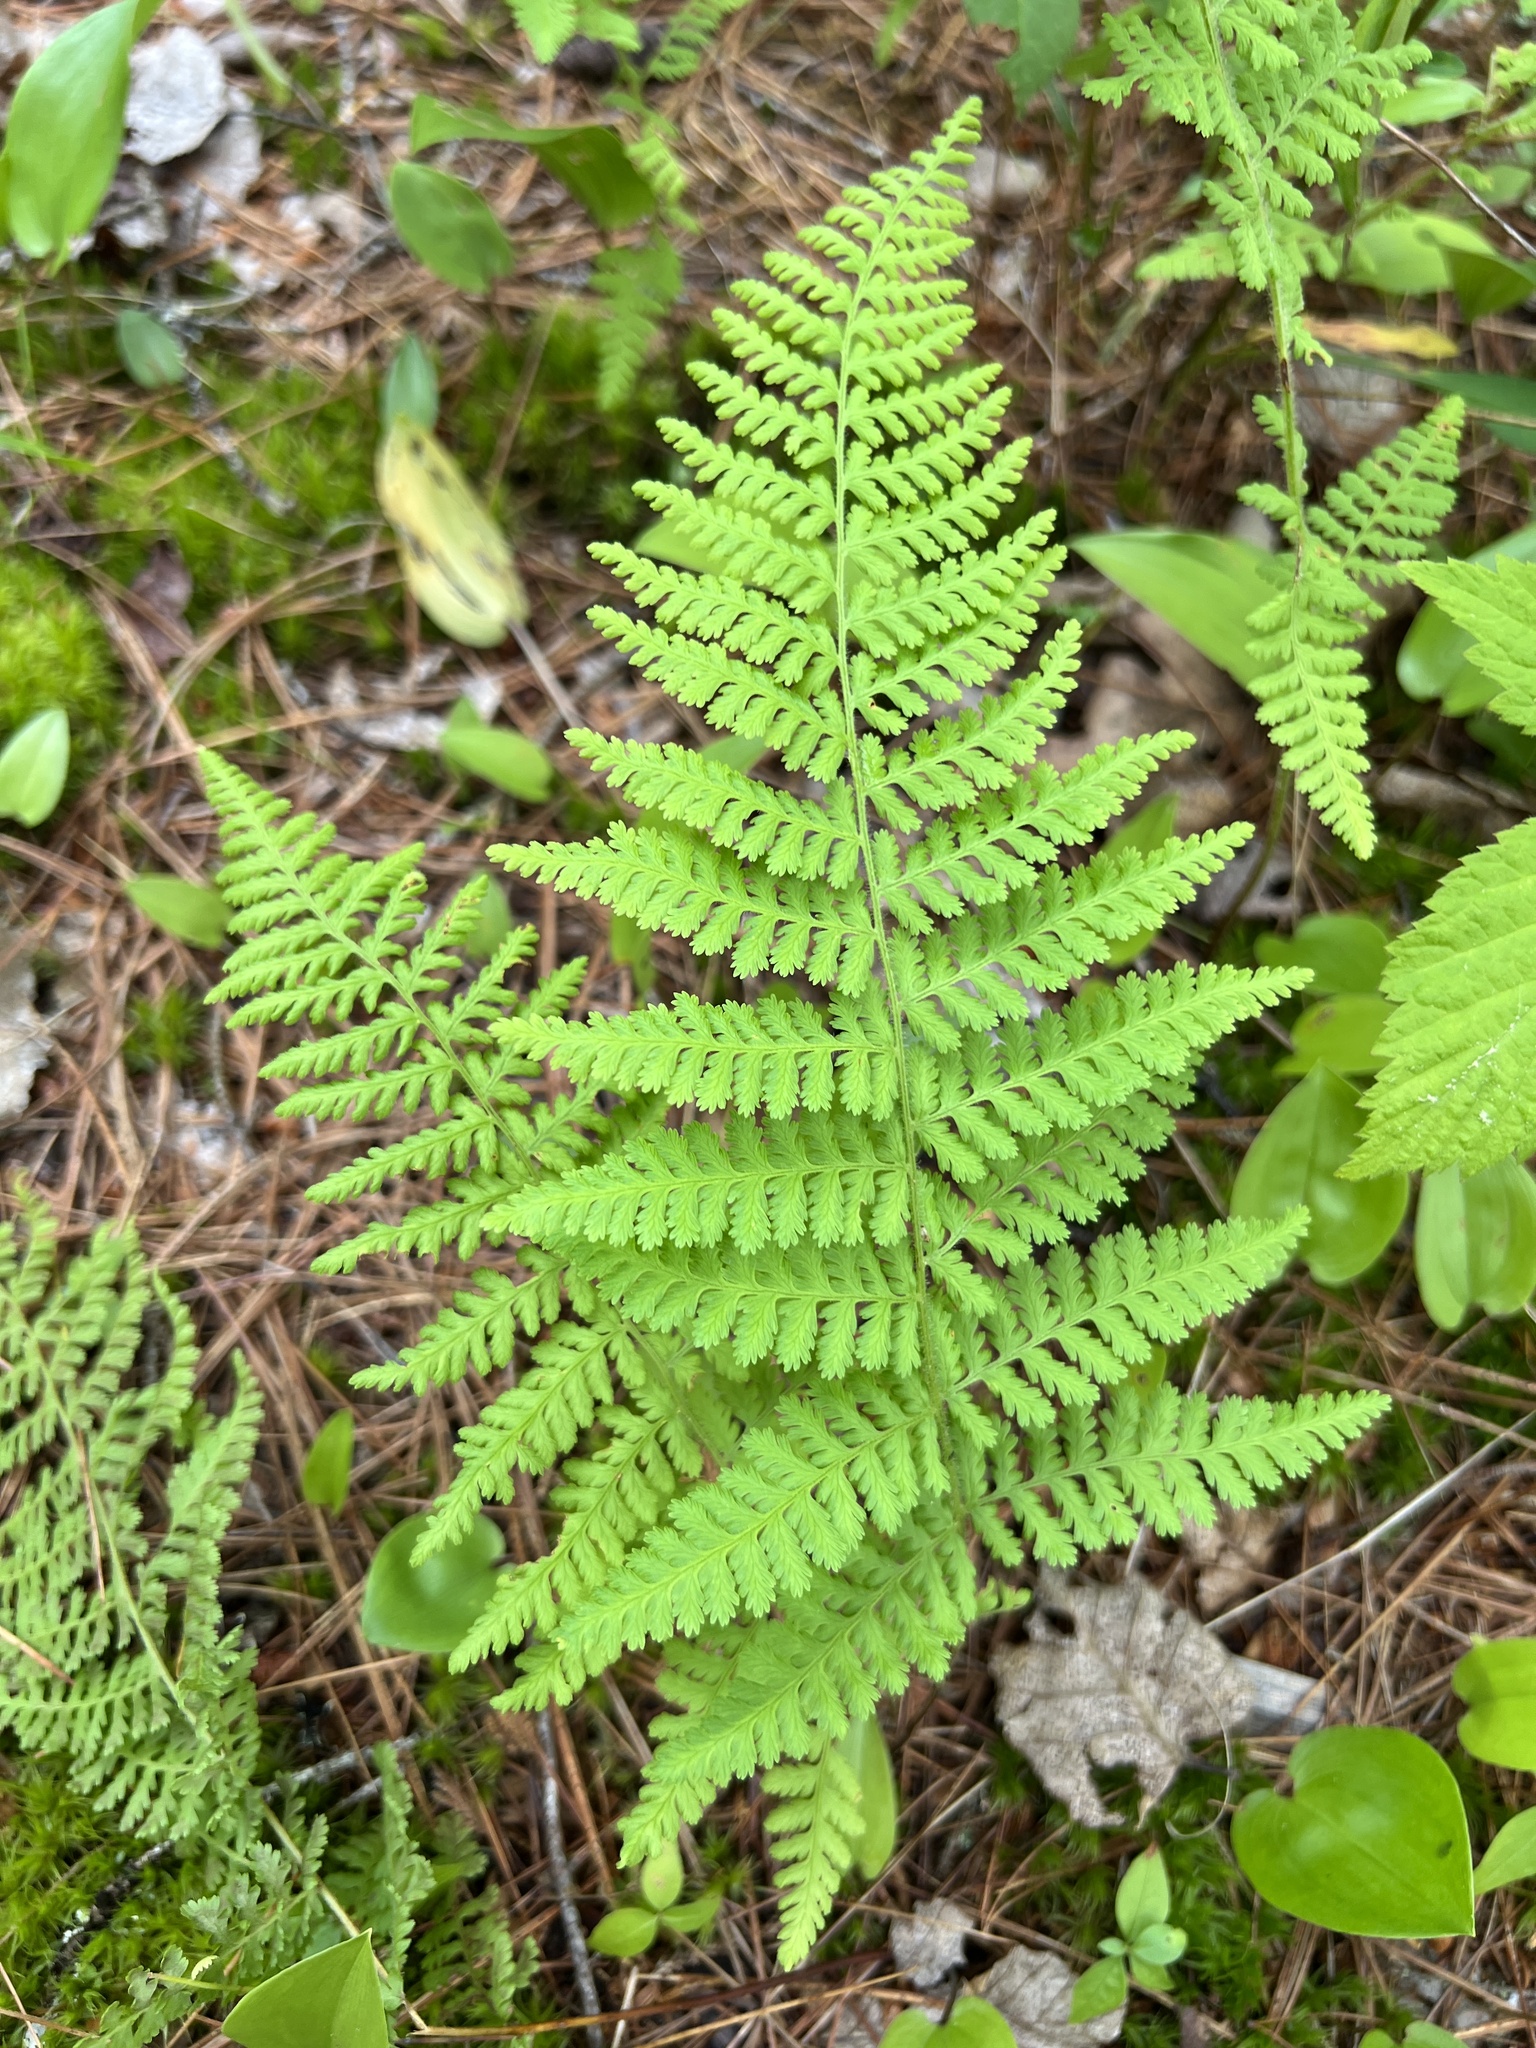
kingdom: Plantae
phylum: Tracheophyta
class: Polypodiopsida
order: Polypodiales
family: Dennstaedtiaceae
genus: Sitobolium
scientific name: Sitobolium punctilobum
